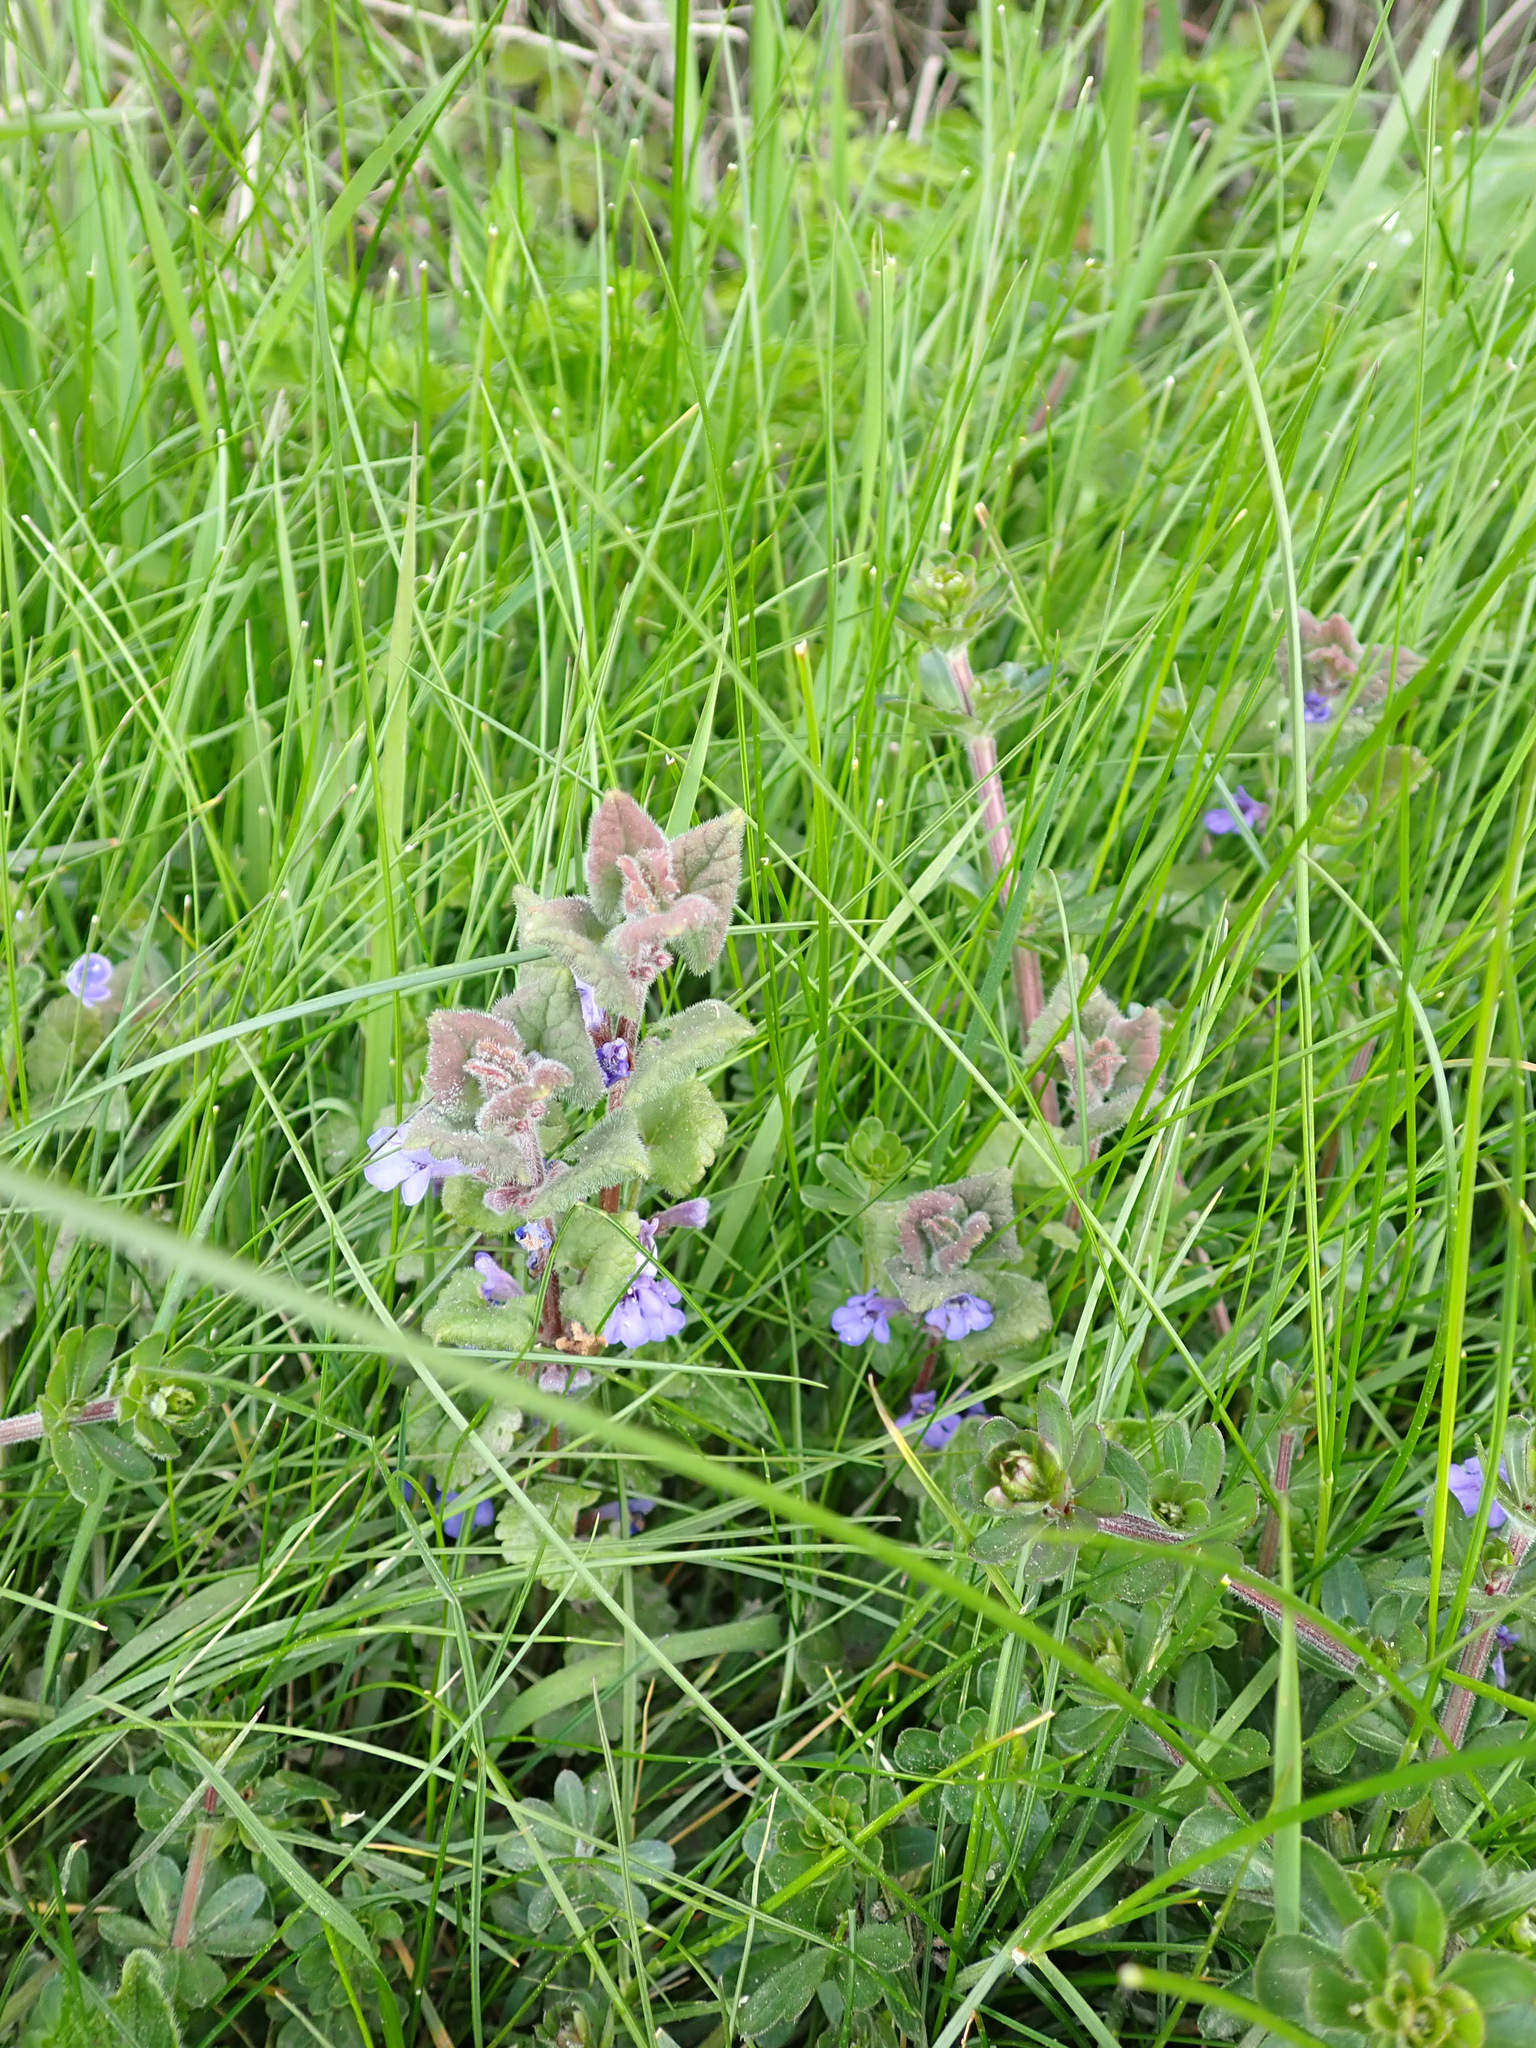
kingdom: Plantae
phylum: Tracheophyta
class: Magnoliopsida
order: Lamiales
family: Lamiaceae
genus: Glechoma
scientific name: Glechoma hederacea
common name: Ground ivy
